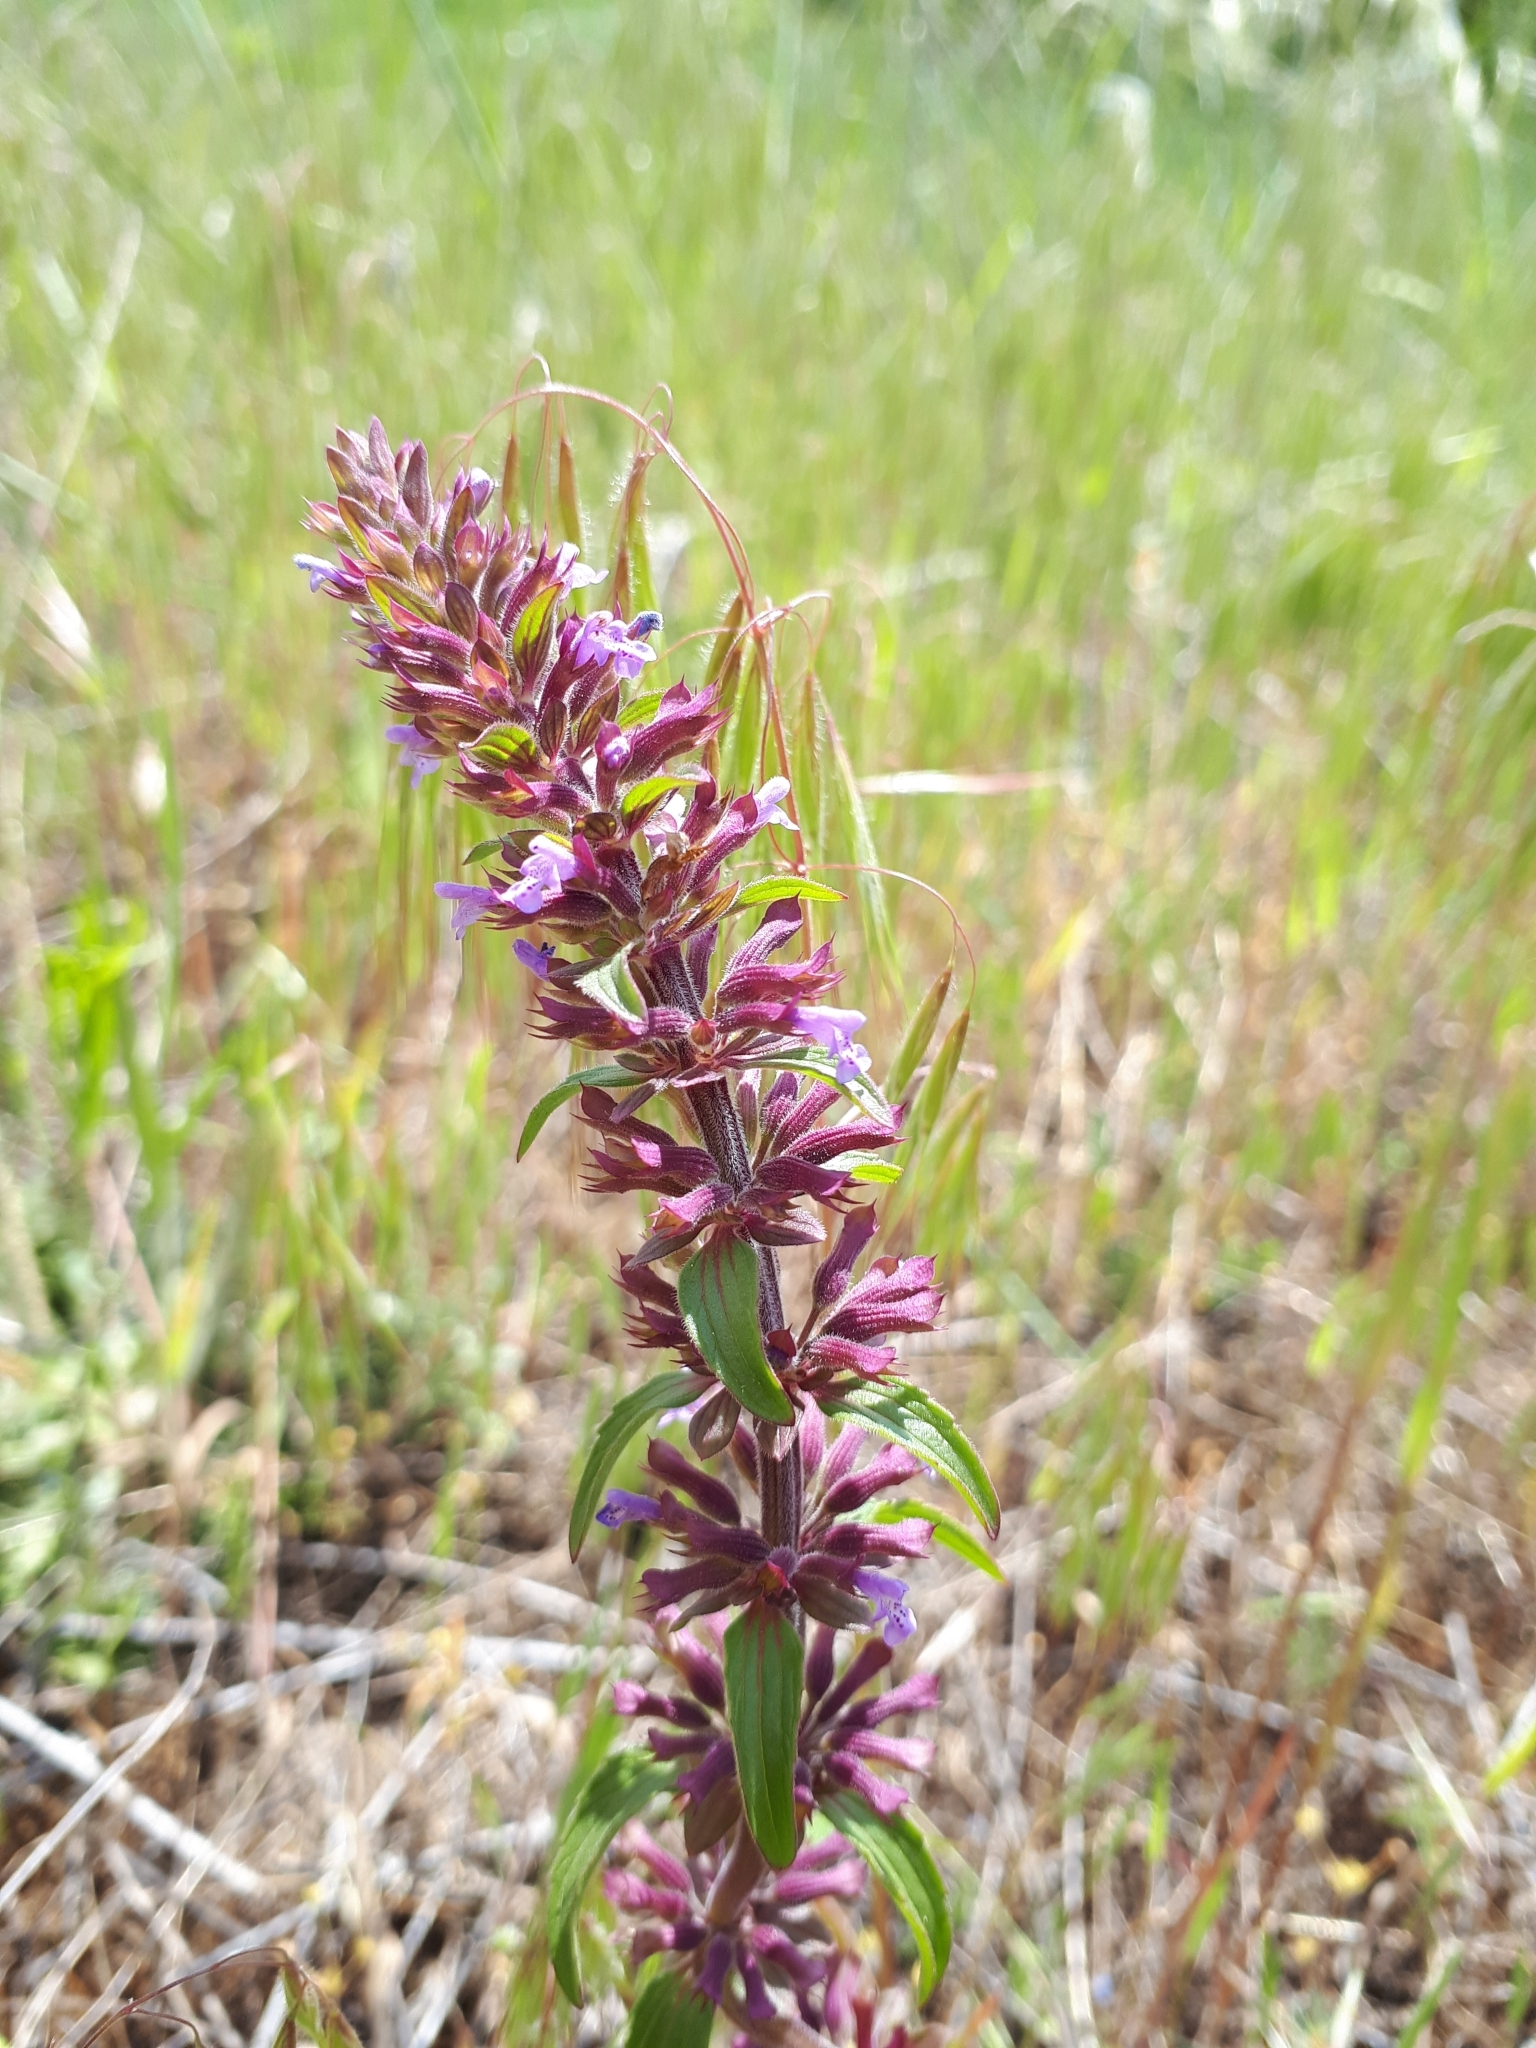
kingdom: Plantae
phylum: Tracheophyta
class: Magnoliopsida
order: Lamiales
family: Lamiaceae
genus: Dracocephalum
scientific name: Dracocephalum thymiflorum
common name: Thymeleaf dragonhead
